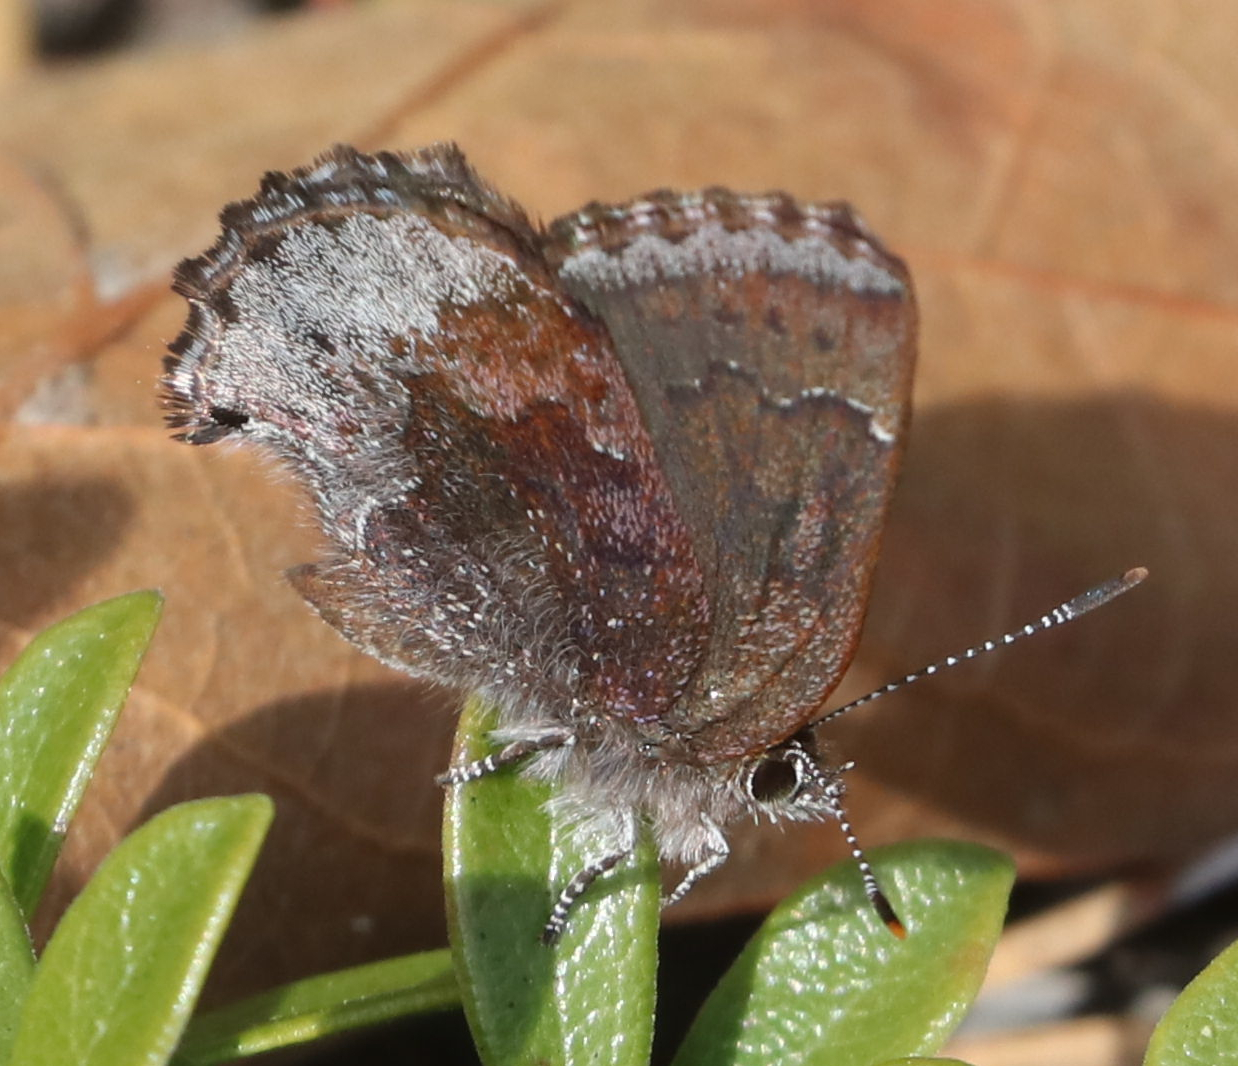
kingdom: Animalia
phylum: Arthropoda
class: Insecta
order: Lepidoptera
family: Lycaenidae
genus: Callophrys
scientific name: Callophrys polios
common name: Hoary elfin
